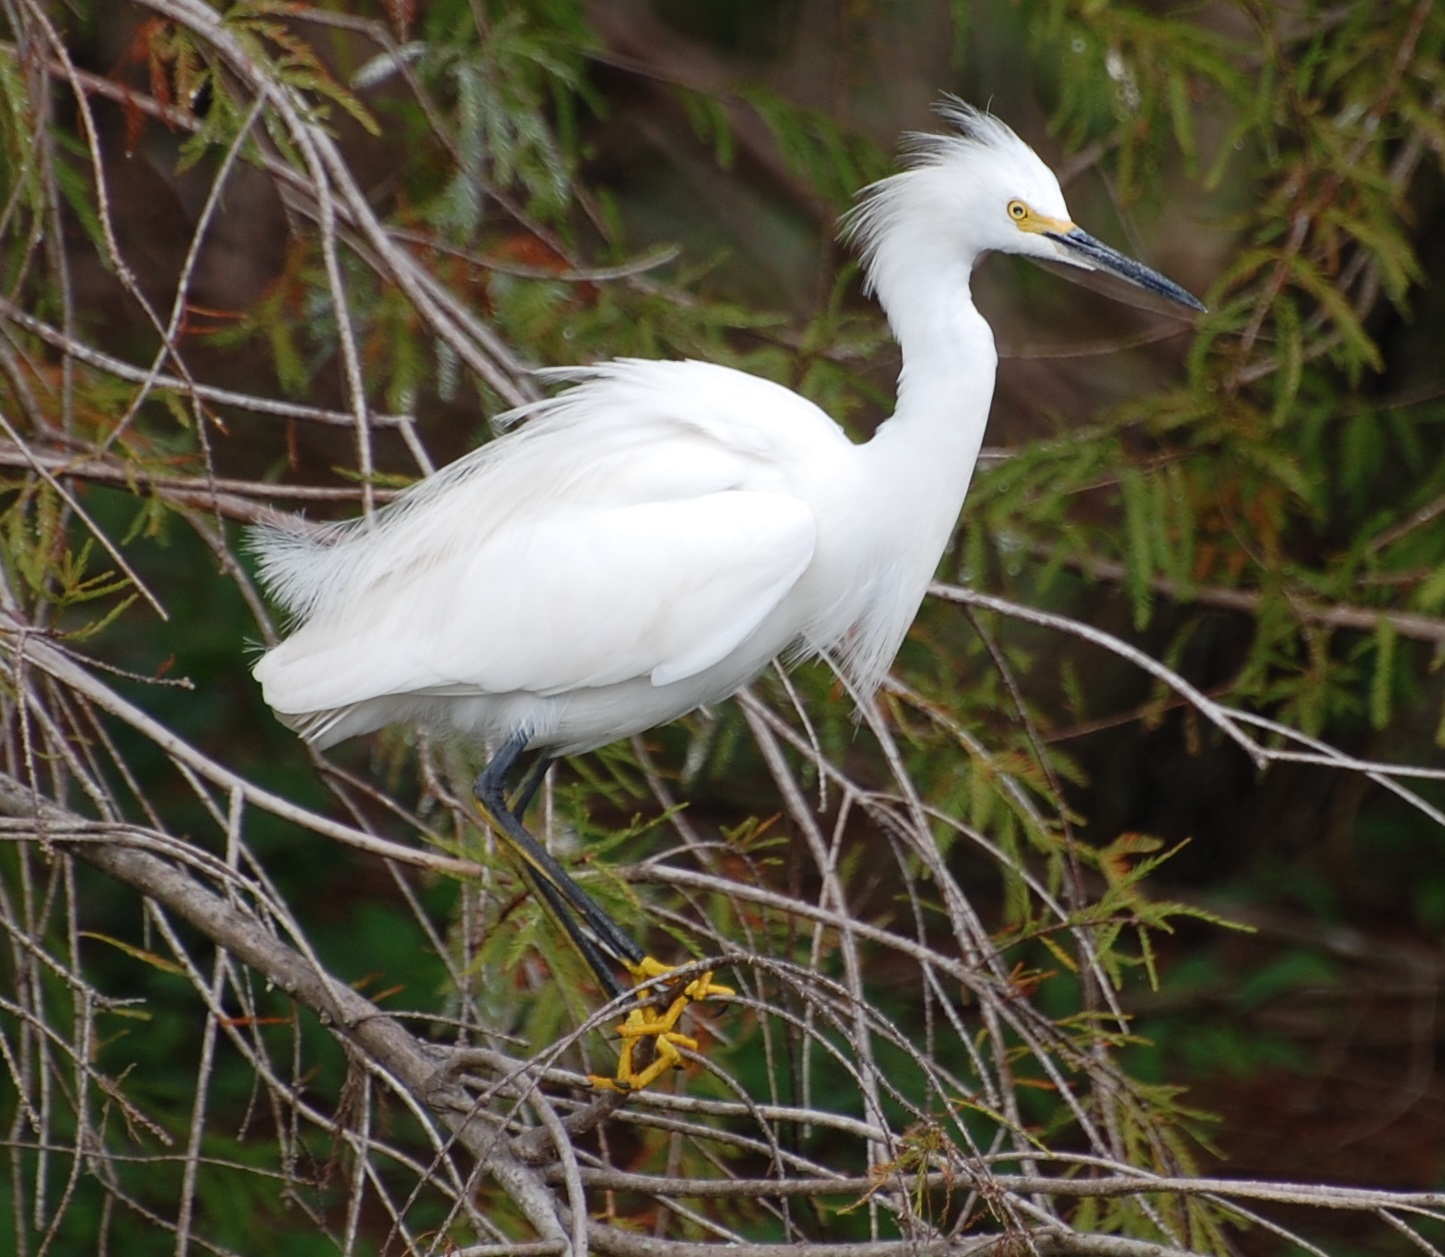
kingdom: Animalia
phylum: Chordata
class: Aves
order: Pelecaniformes
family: Ardeidae
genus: Egretta
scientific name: Egretta thula
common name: Snowy egret
